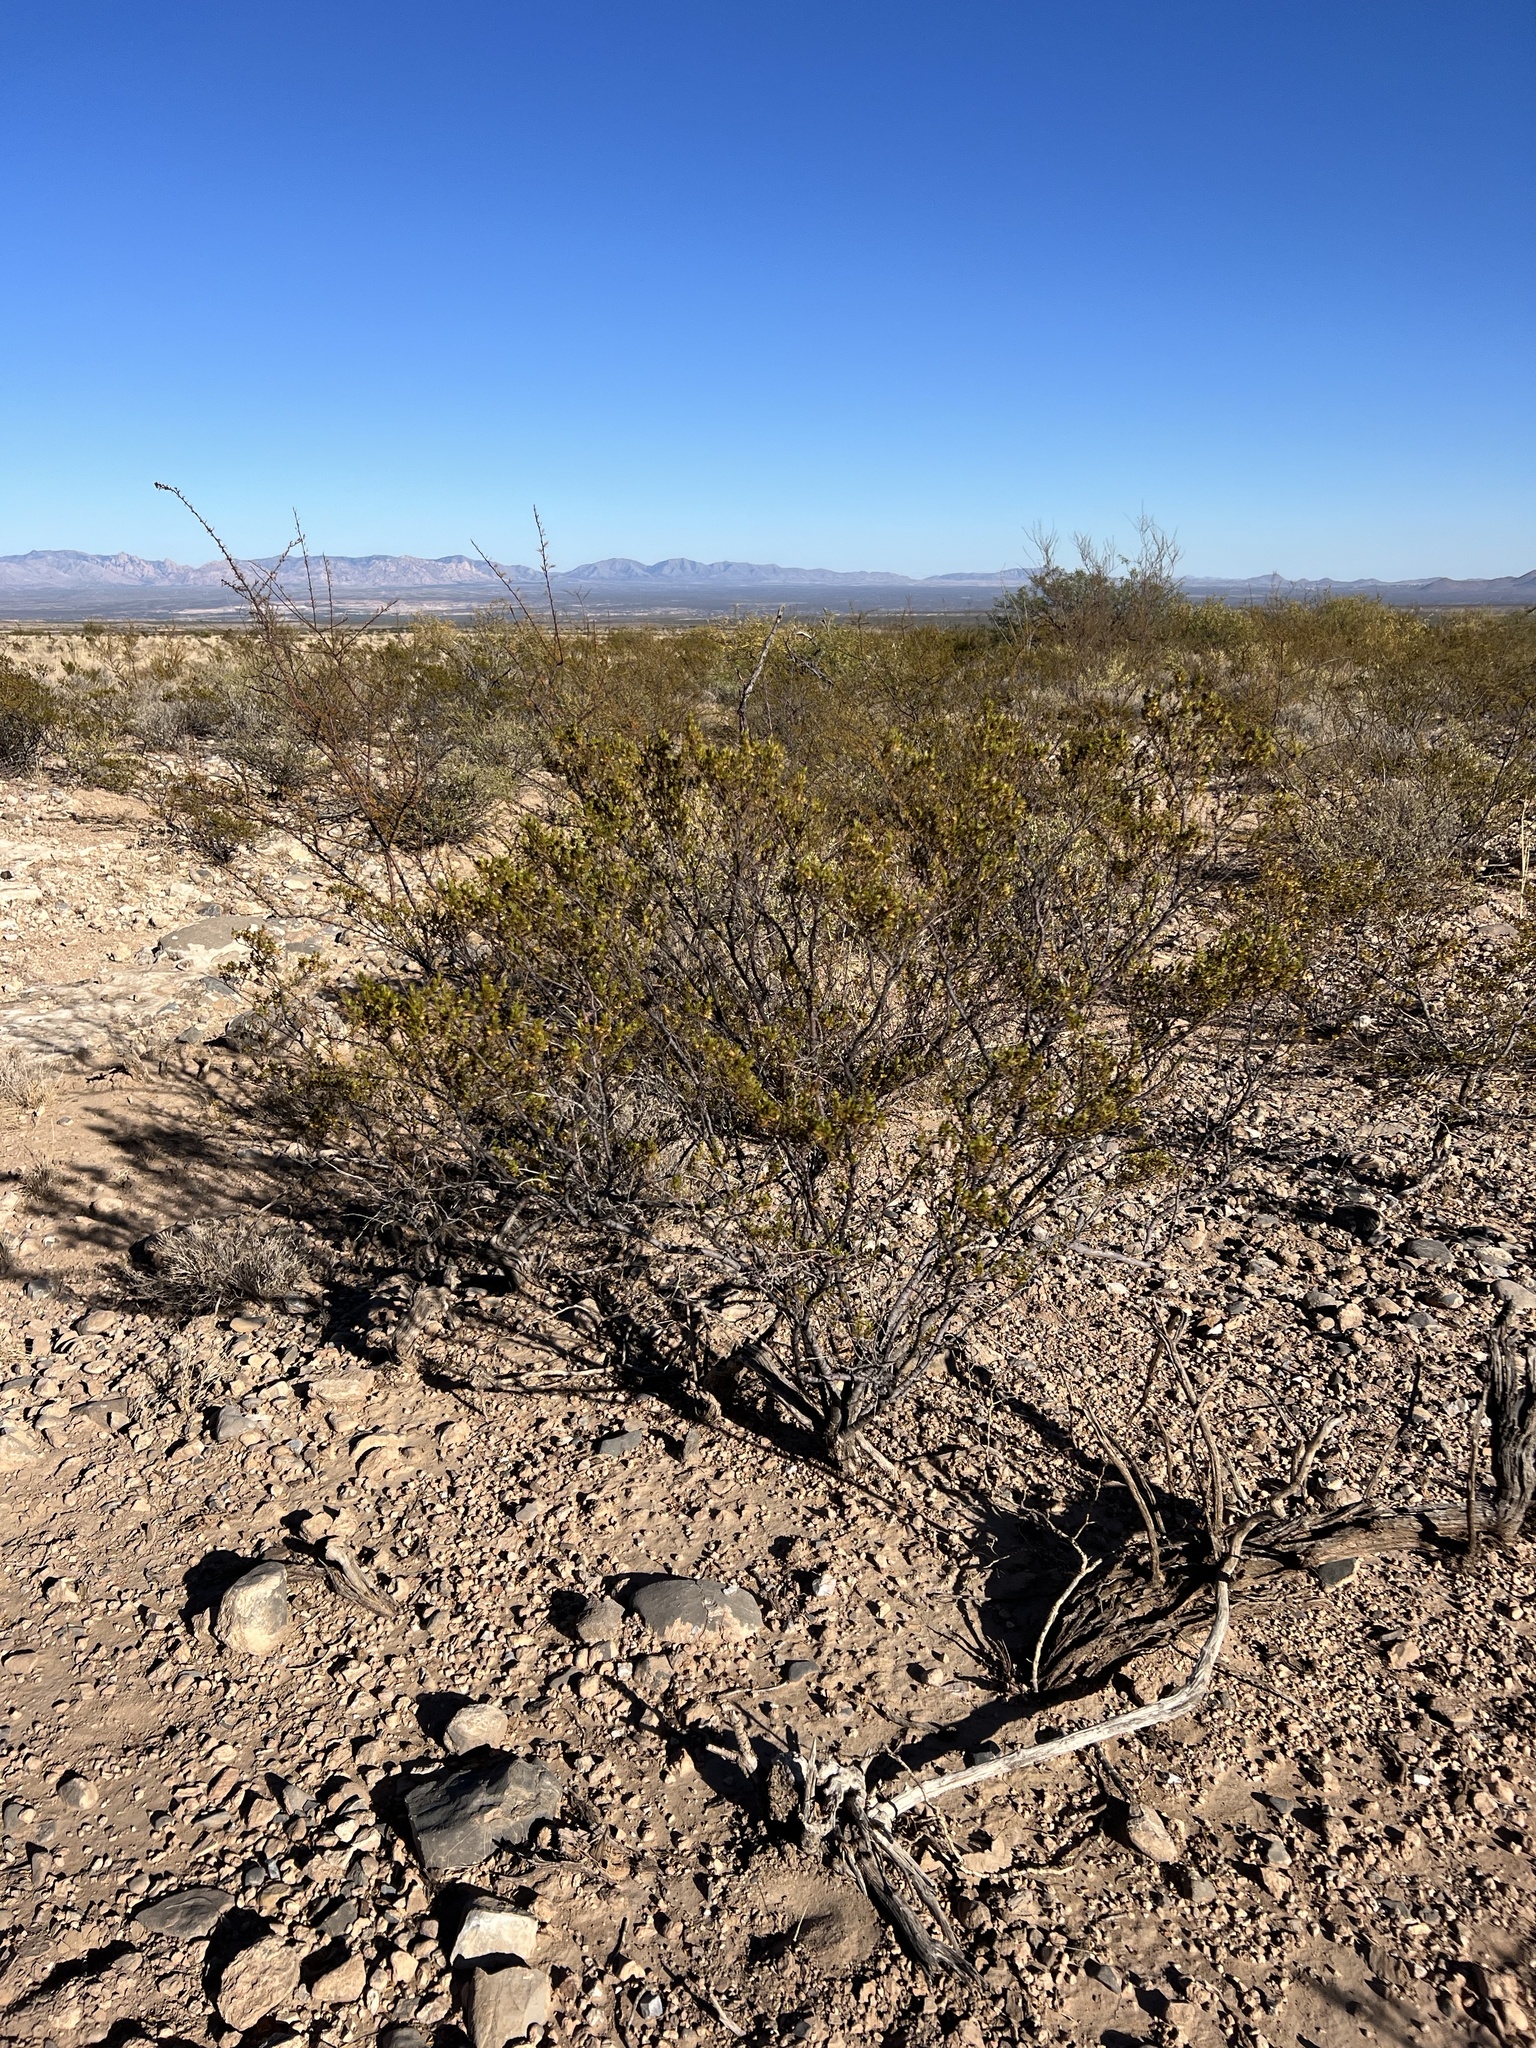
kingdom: Plantae
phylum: Tracheophyta
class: Magnoliopsida
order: Zygophyllales
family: Zygophyllaceae
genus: Larrea
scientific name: Larrea tridentata
